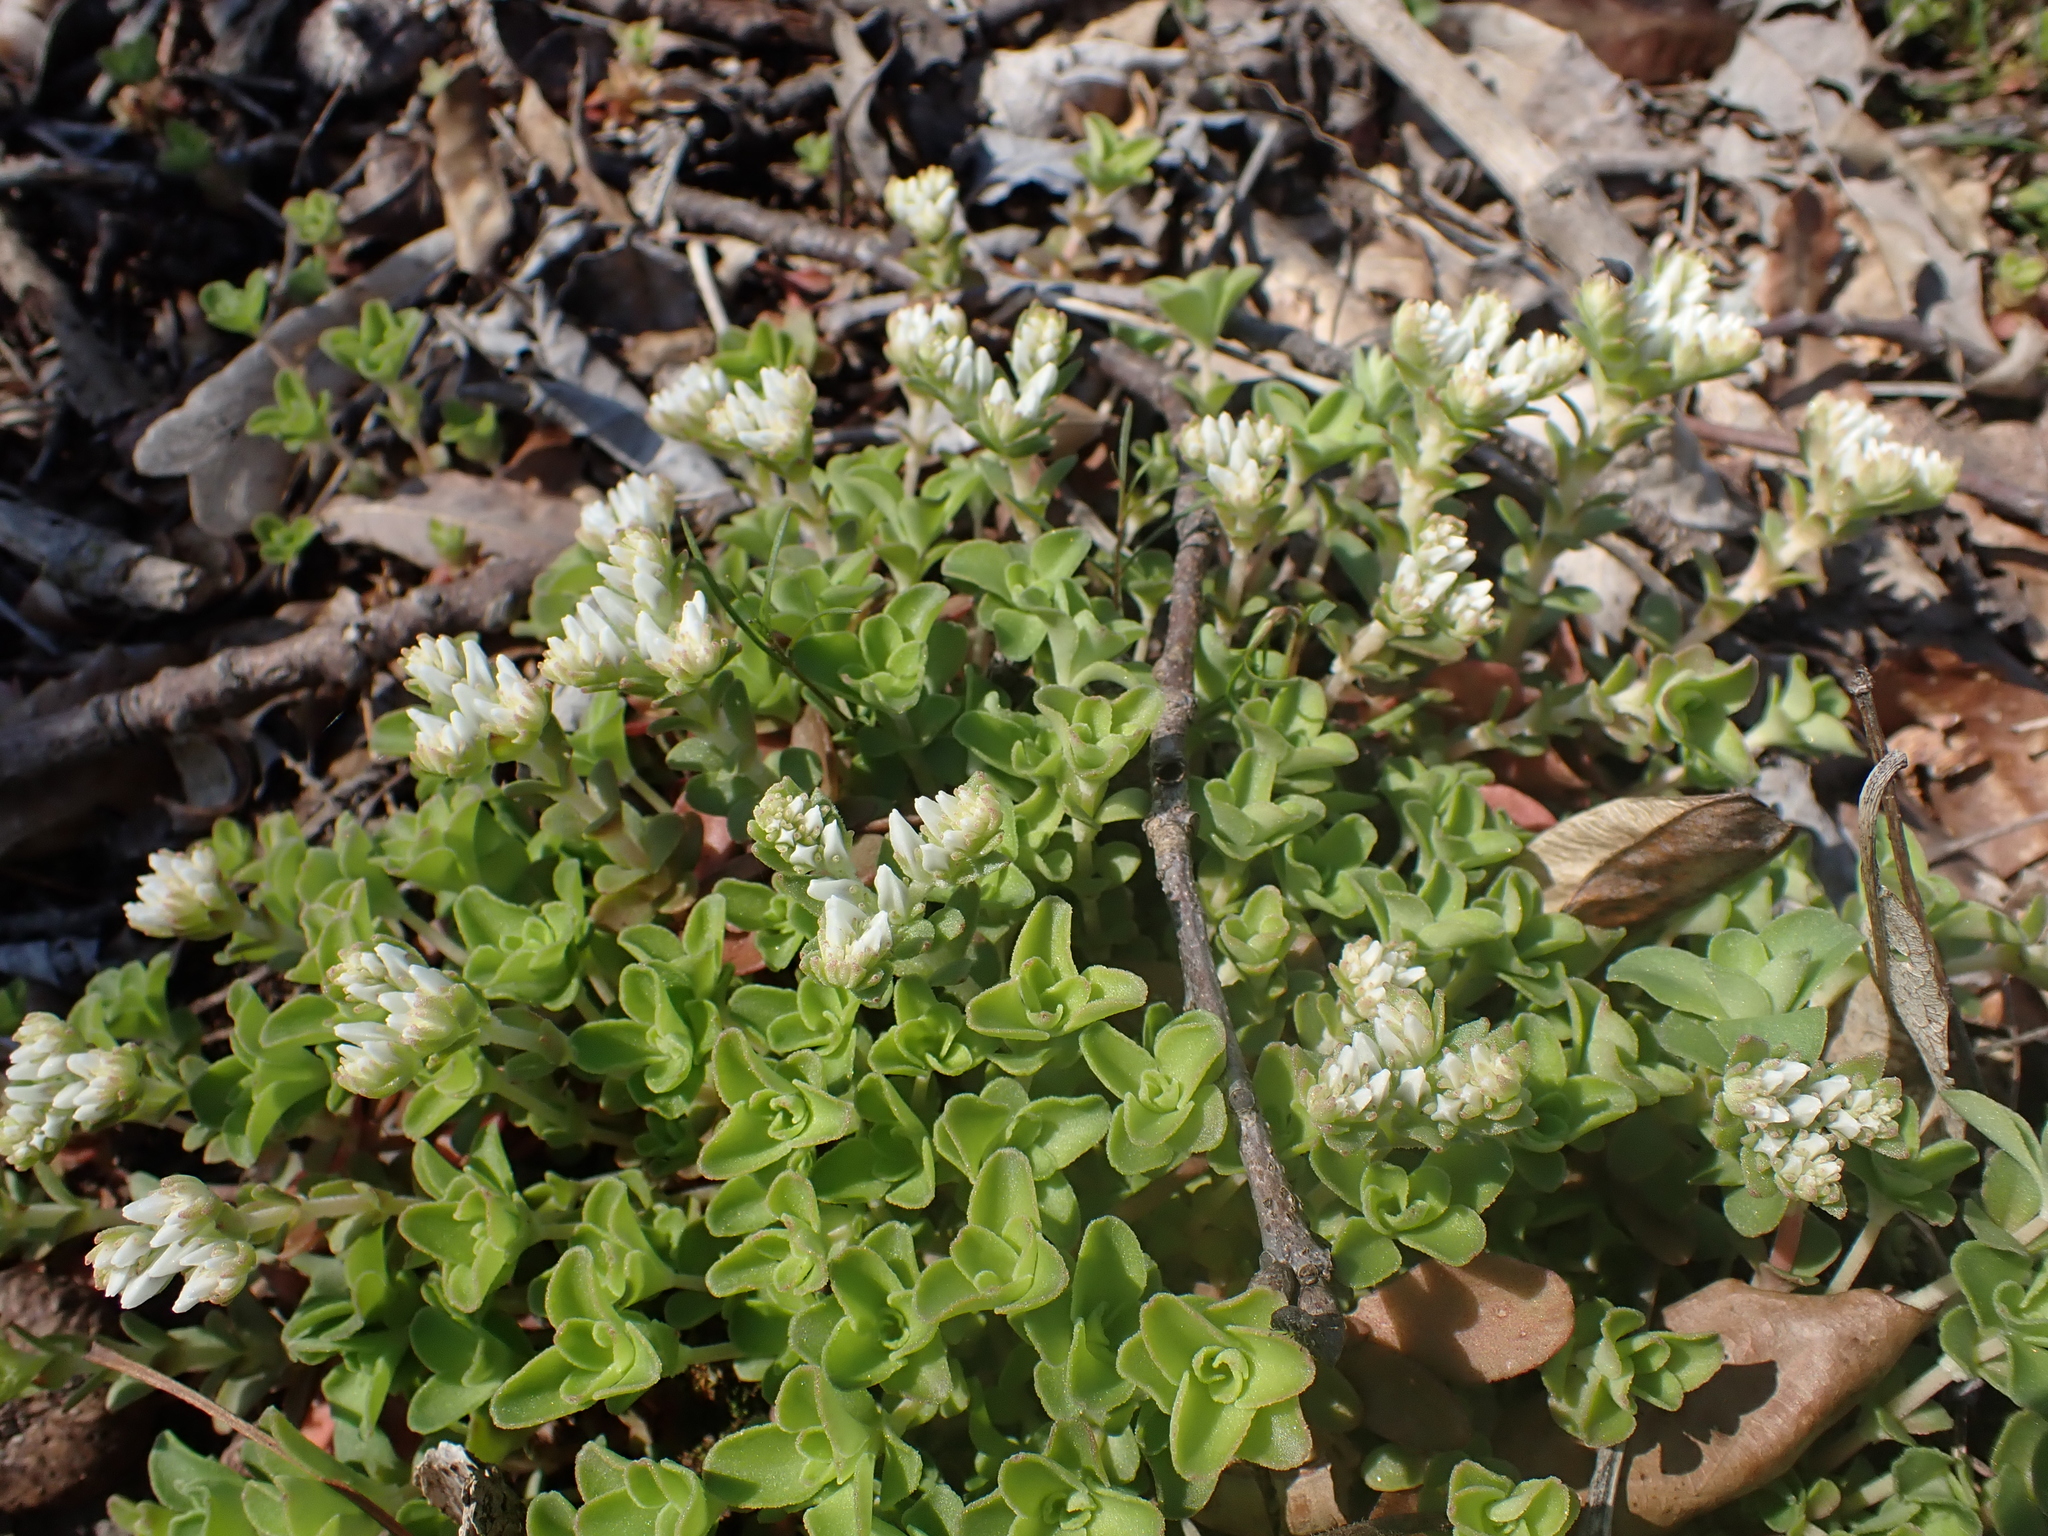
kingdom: Plantae
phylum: Tracheophyta
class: Magnoliopsida
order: Saxifragales
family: Crassulaceae
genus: Sedum
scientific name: Sedum ternatum
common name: Wild stonecrop
